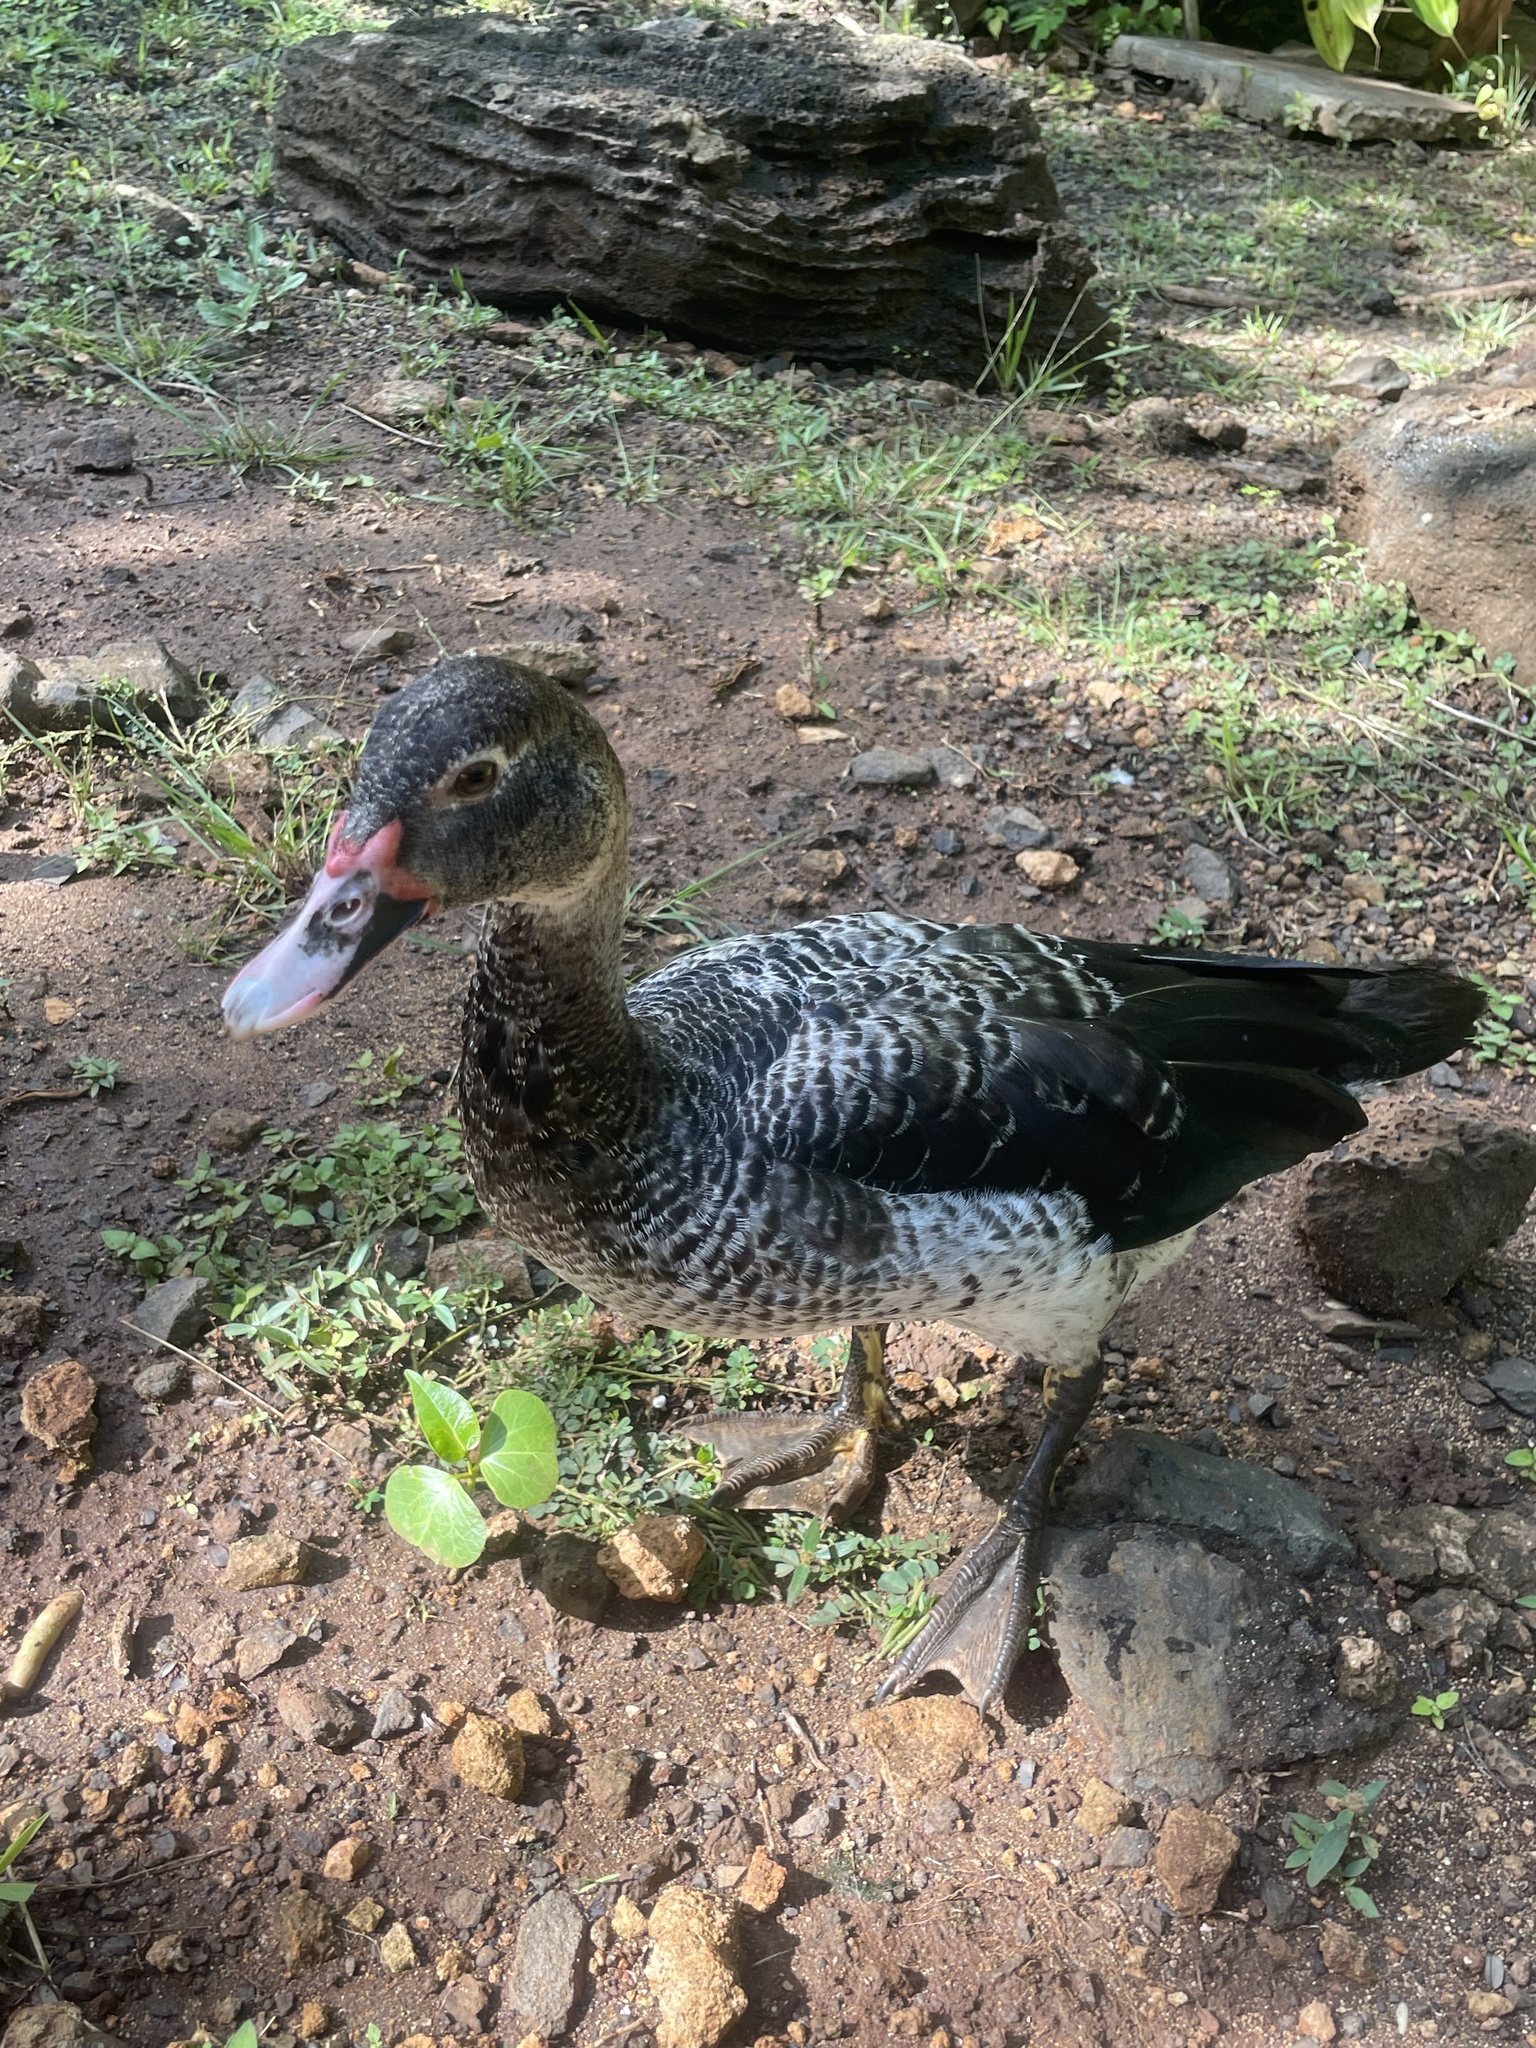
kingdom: Animalia
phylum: Chordata
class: Aves
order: Anseriformes
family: Anatidae
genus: Cairina
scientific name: Cairina moschata
